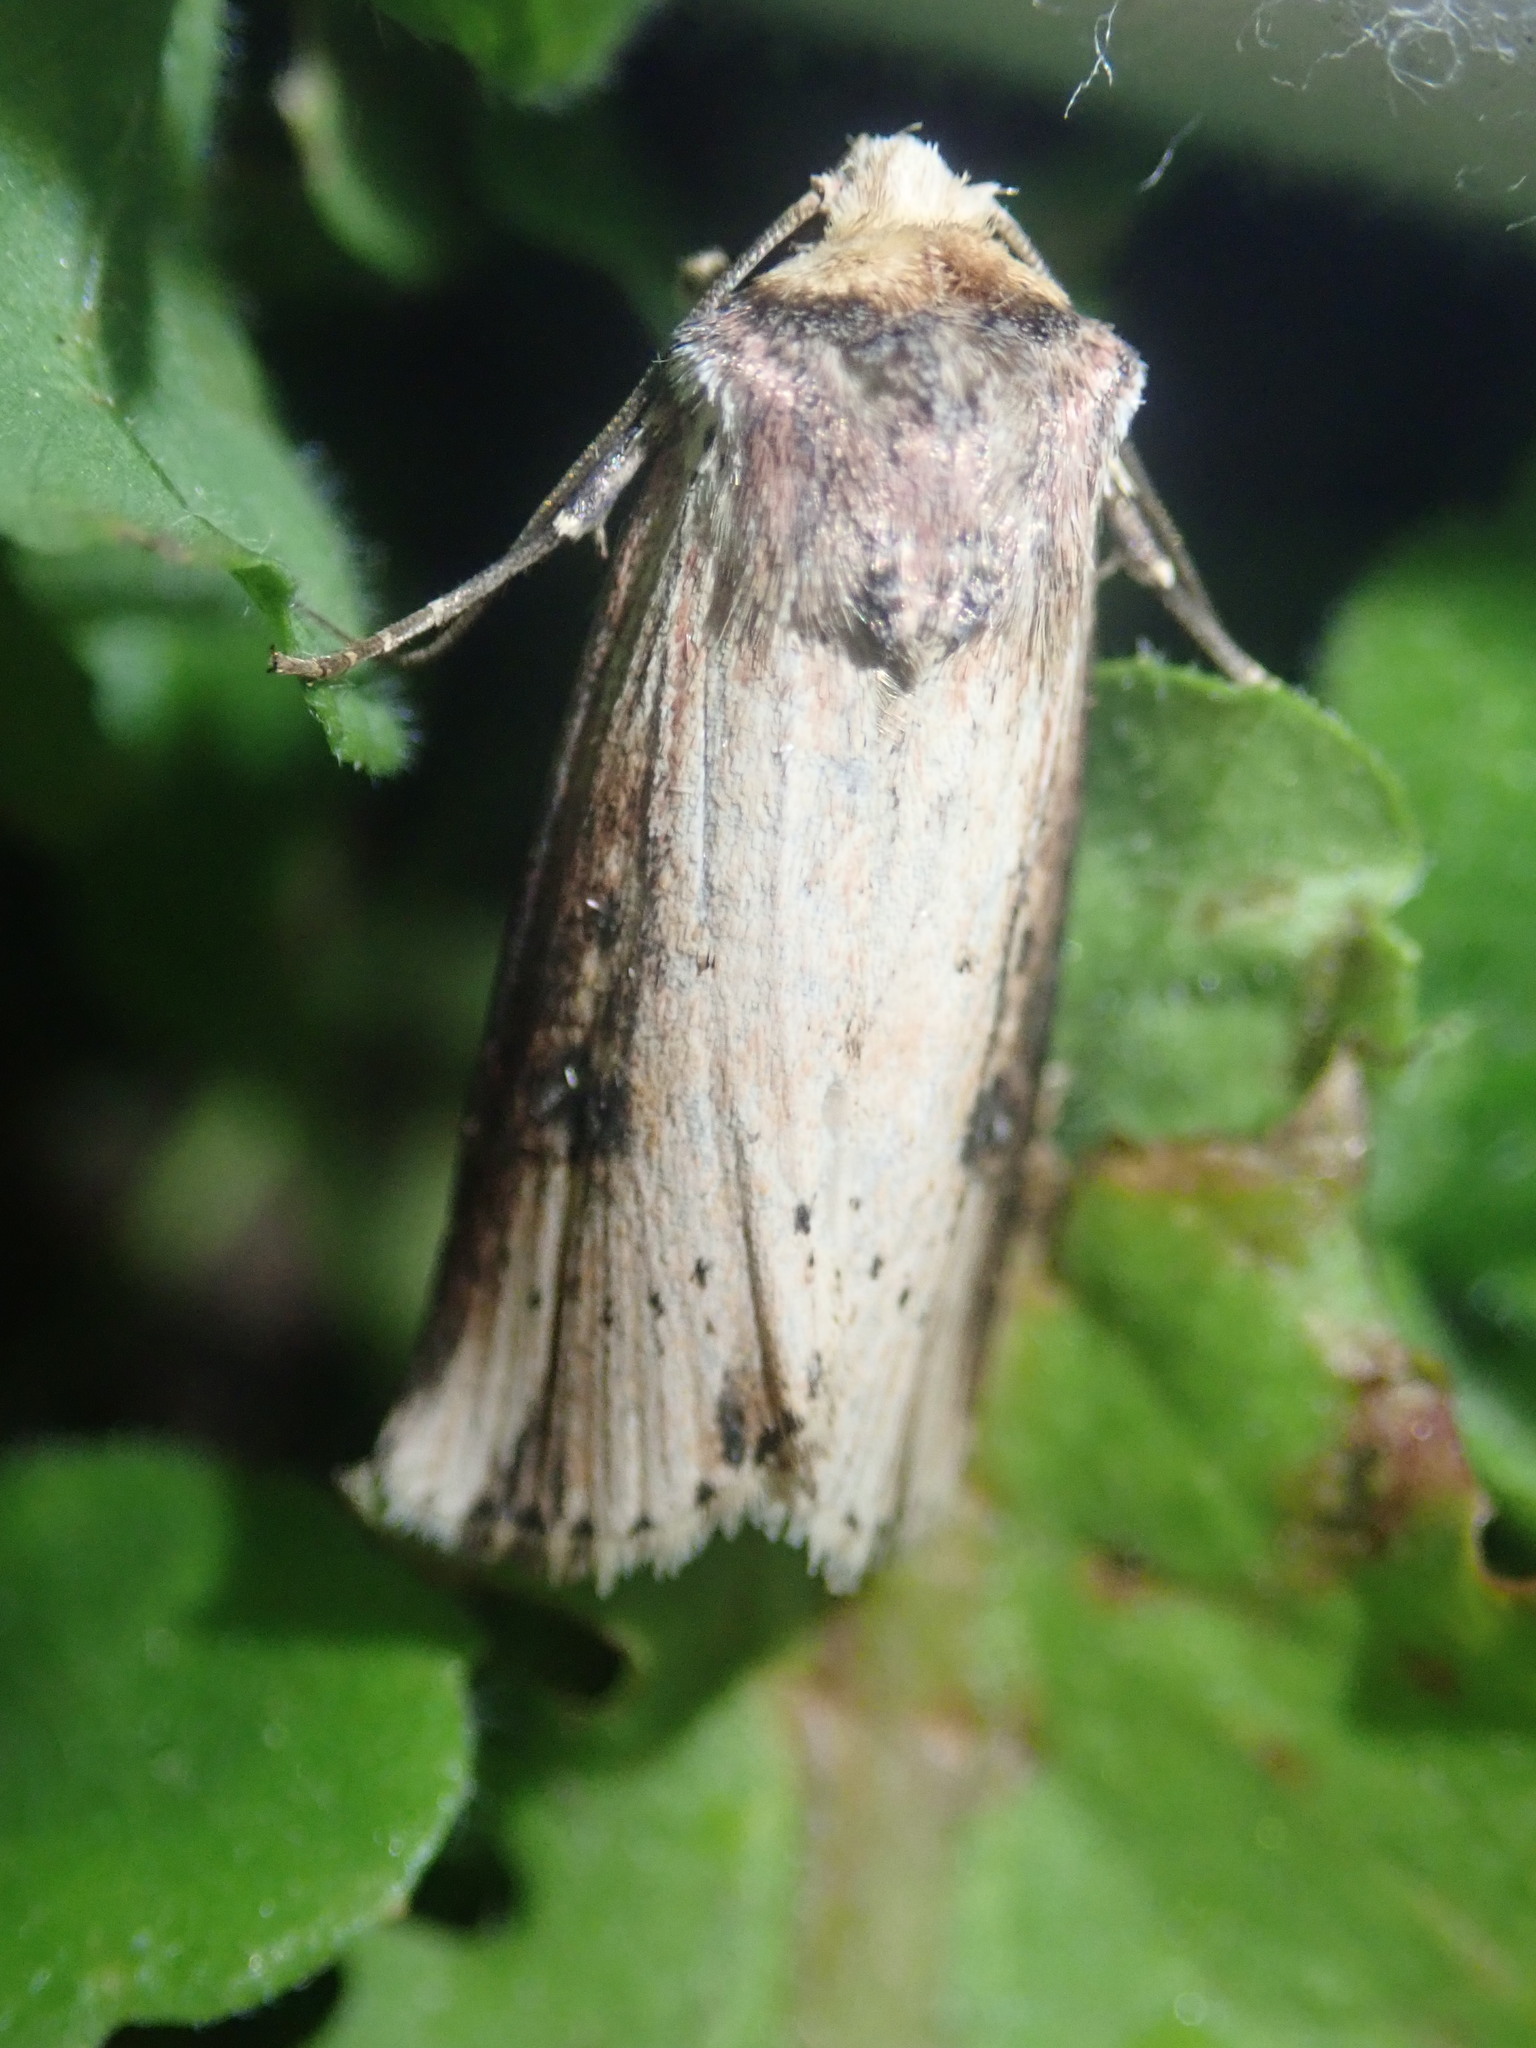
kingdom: Animalia
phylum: Arthropoda
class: Insecta
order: Lepidoptera
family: Noctuidae
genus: Axylia
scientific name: Axylia putris
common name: Flame
